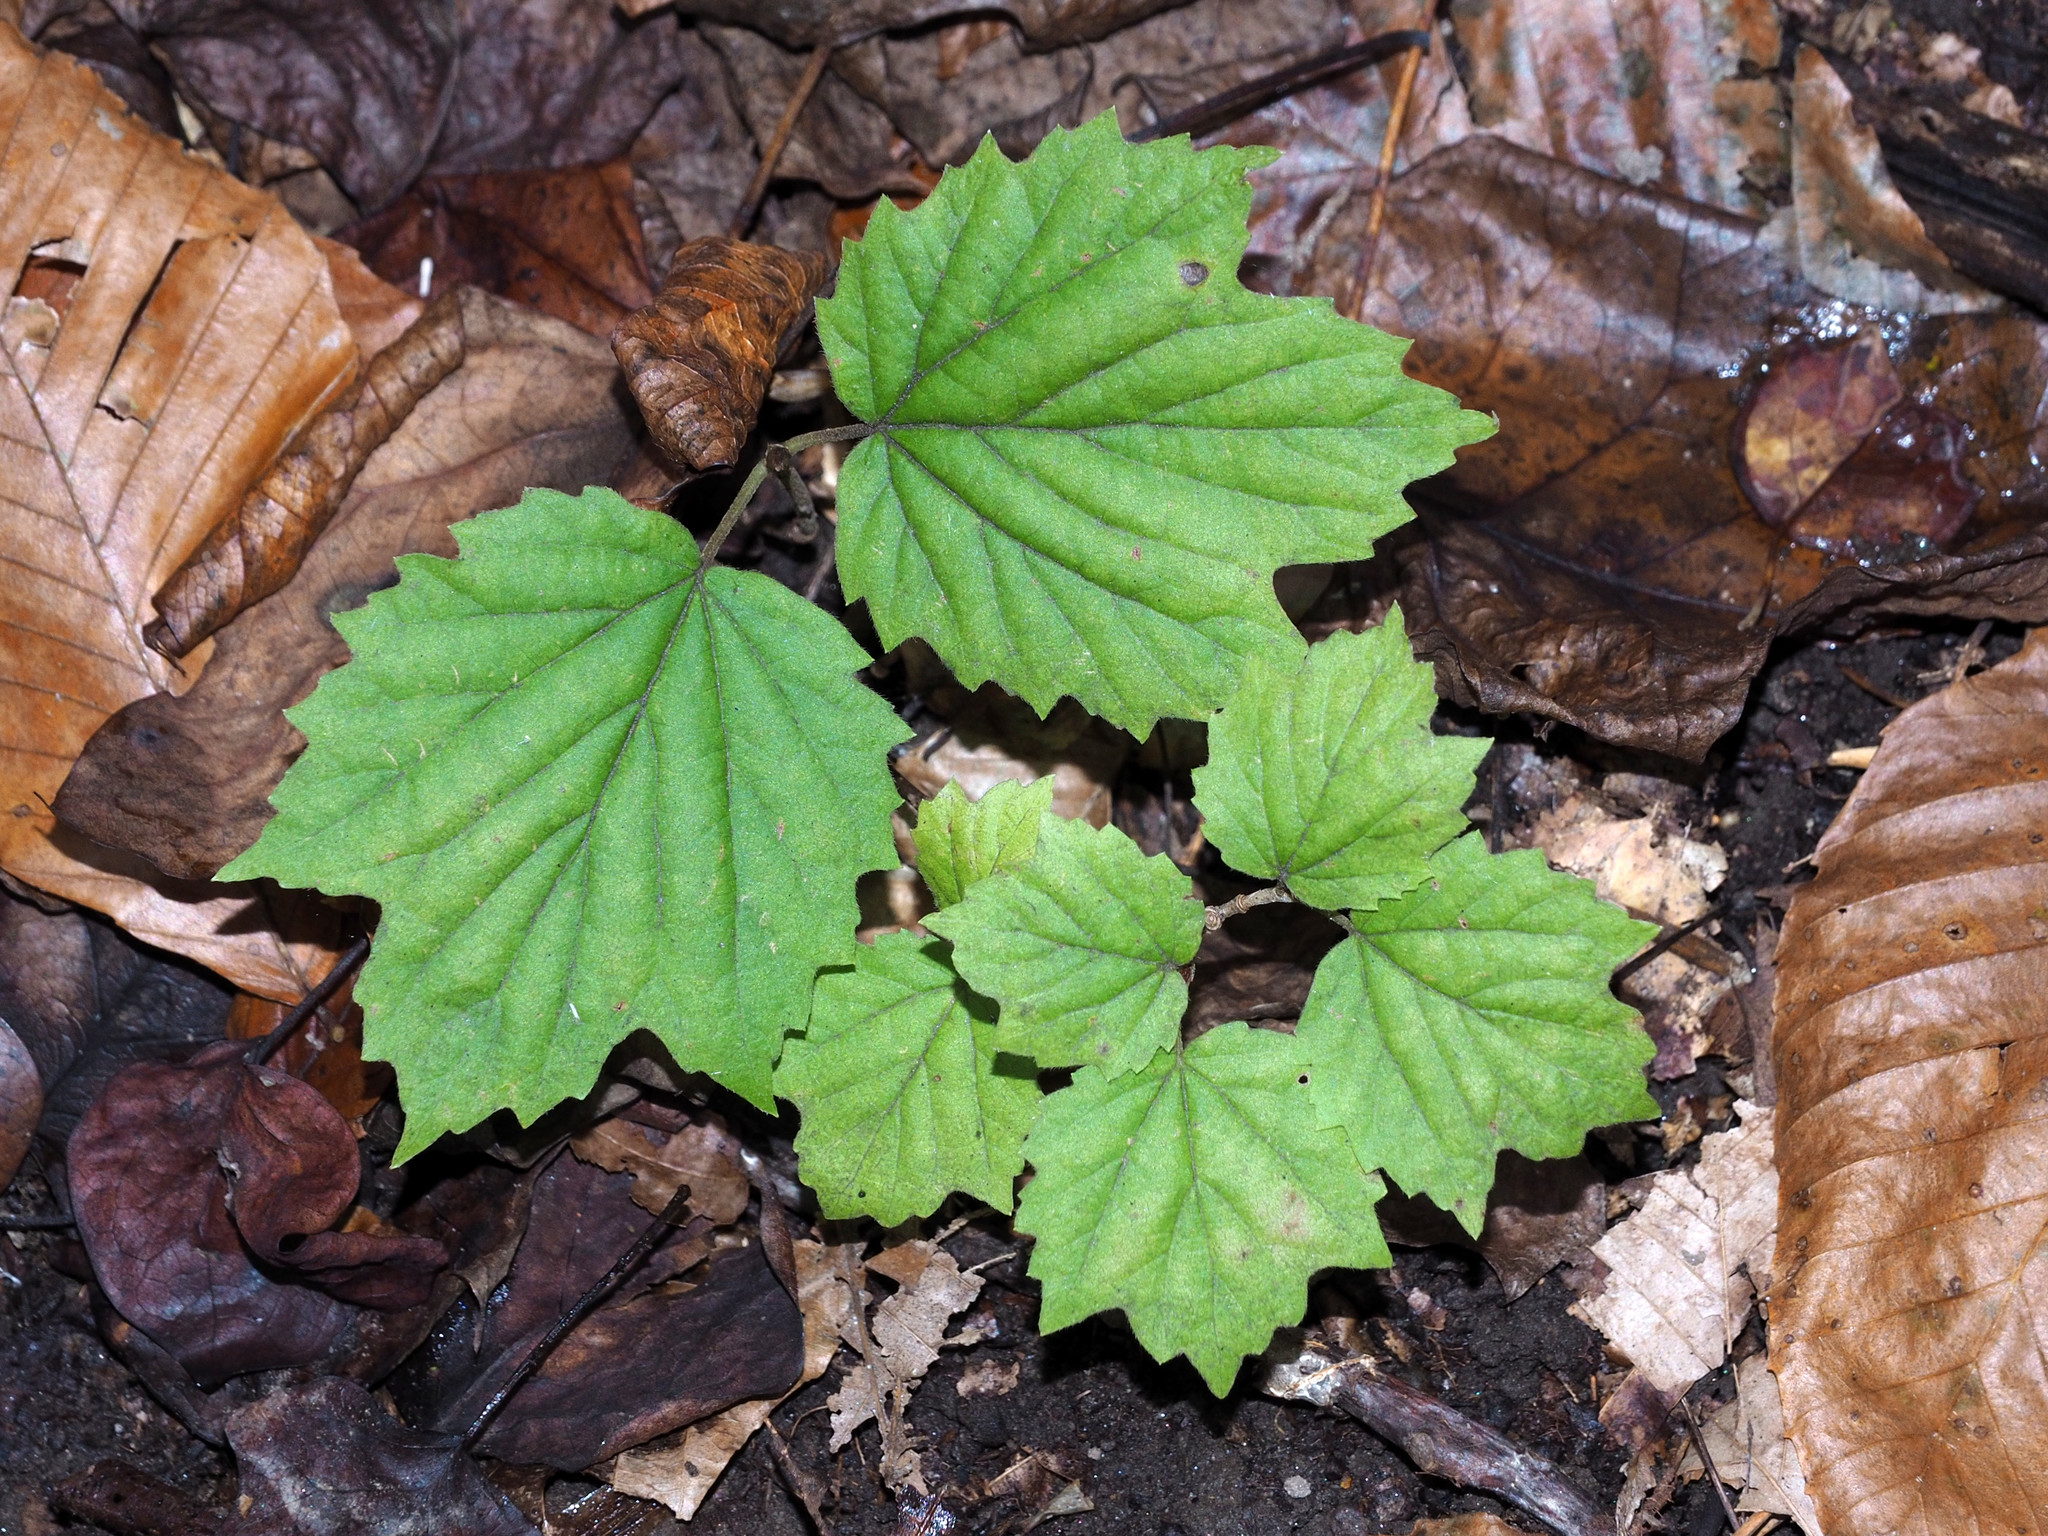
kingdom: Plantae
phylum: Tracheophyta
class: Magnoliopsida
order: Dipsacales
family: Viburnaceae
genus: Viburnum
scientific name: Viburnum acerifolium
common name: Dockmackie
